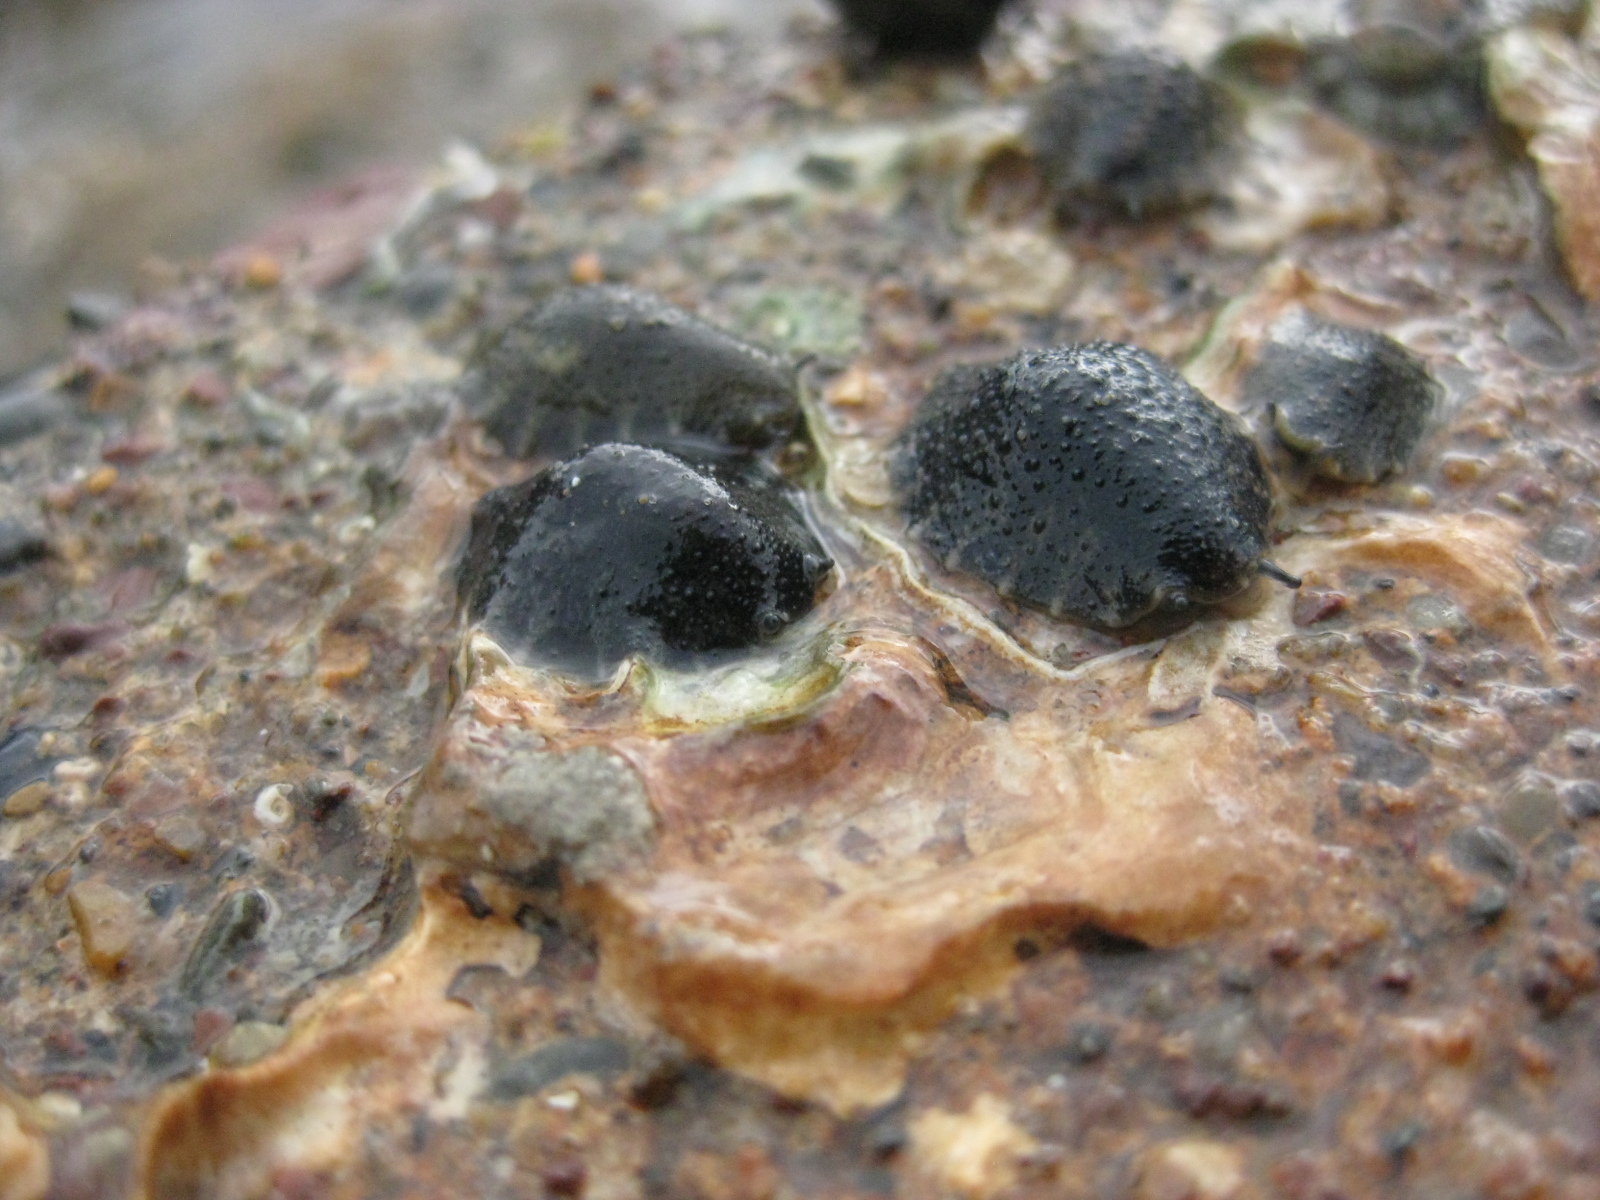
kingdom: Animalia
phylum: Mollusca
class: Gastropoda
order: Systellommatophora
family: Onchidiidae
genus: Onchidella
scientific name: Onchidella nigricans
